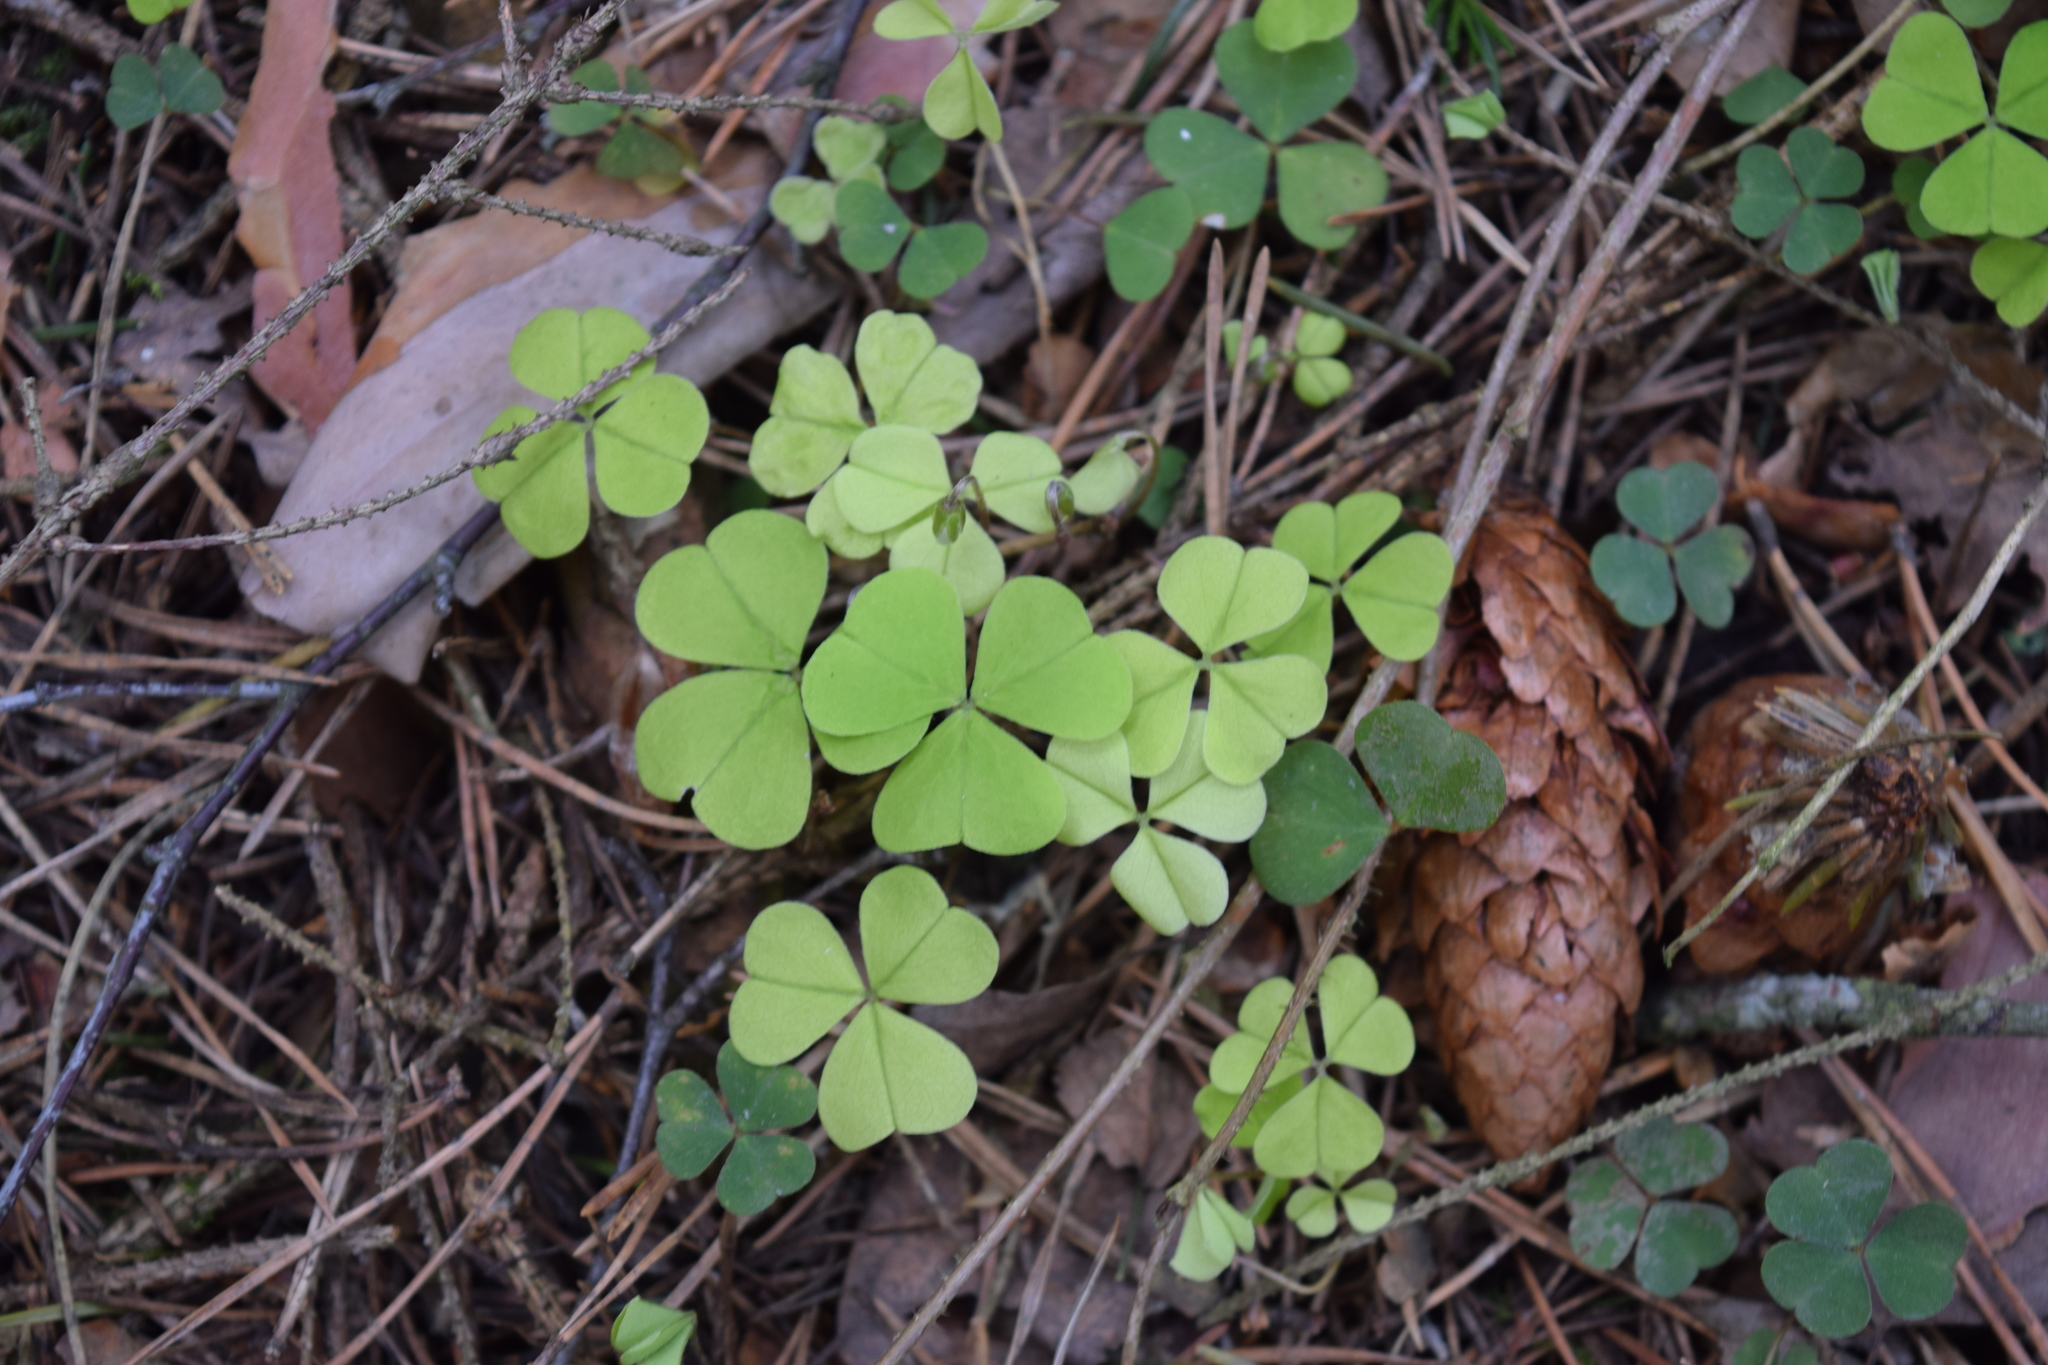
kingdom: Plantae
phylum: Tracheophyta
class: Magnoliopsida
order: Oxalidales
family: Oxalidaceae
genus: Oxalis
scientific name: Oxalis acetosella
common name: Wood-sorrel
